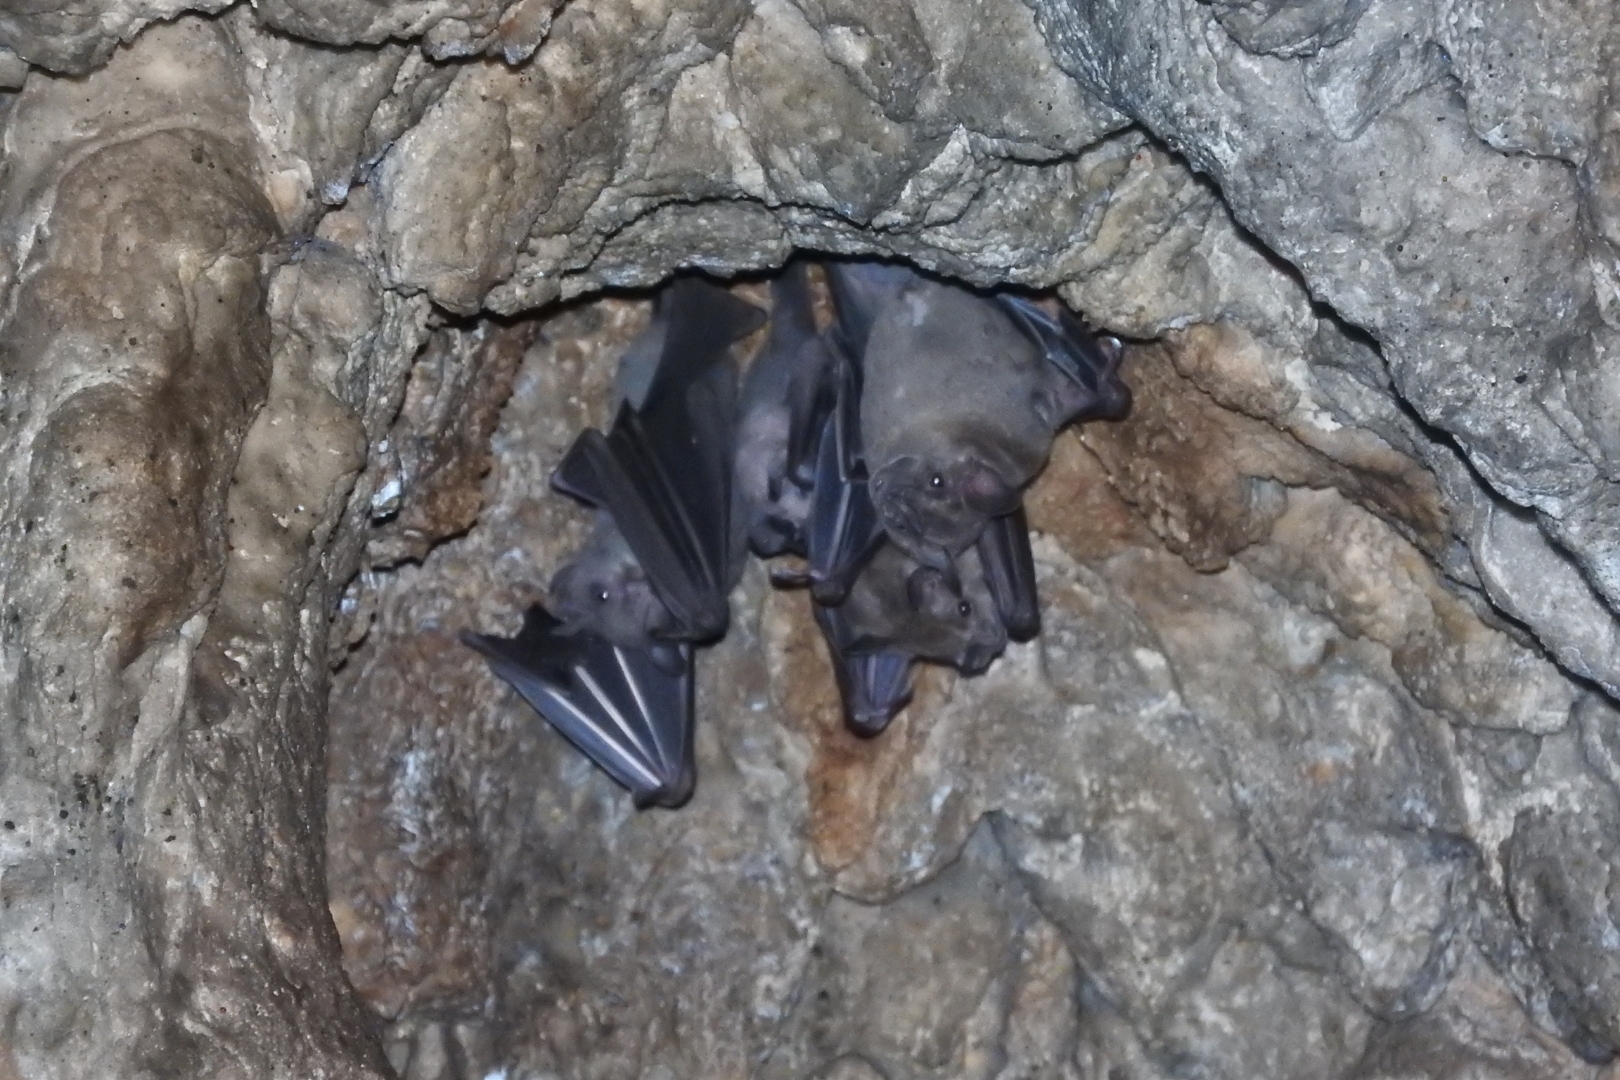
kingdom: Animalia
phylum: Chordata
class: Mammalia
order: Chiroptera
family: Phyllostomidae
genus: Artibeus
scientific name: Artibeus jamaicensis
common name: Jamaican fruit-eating bat
